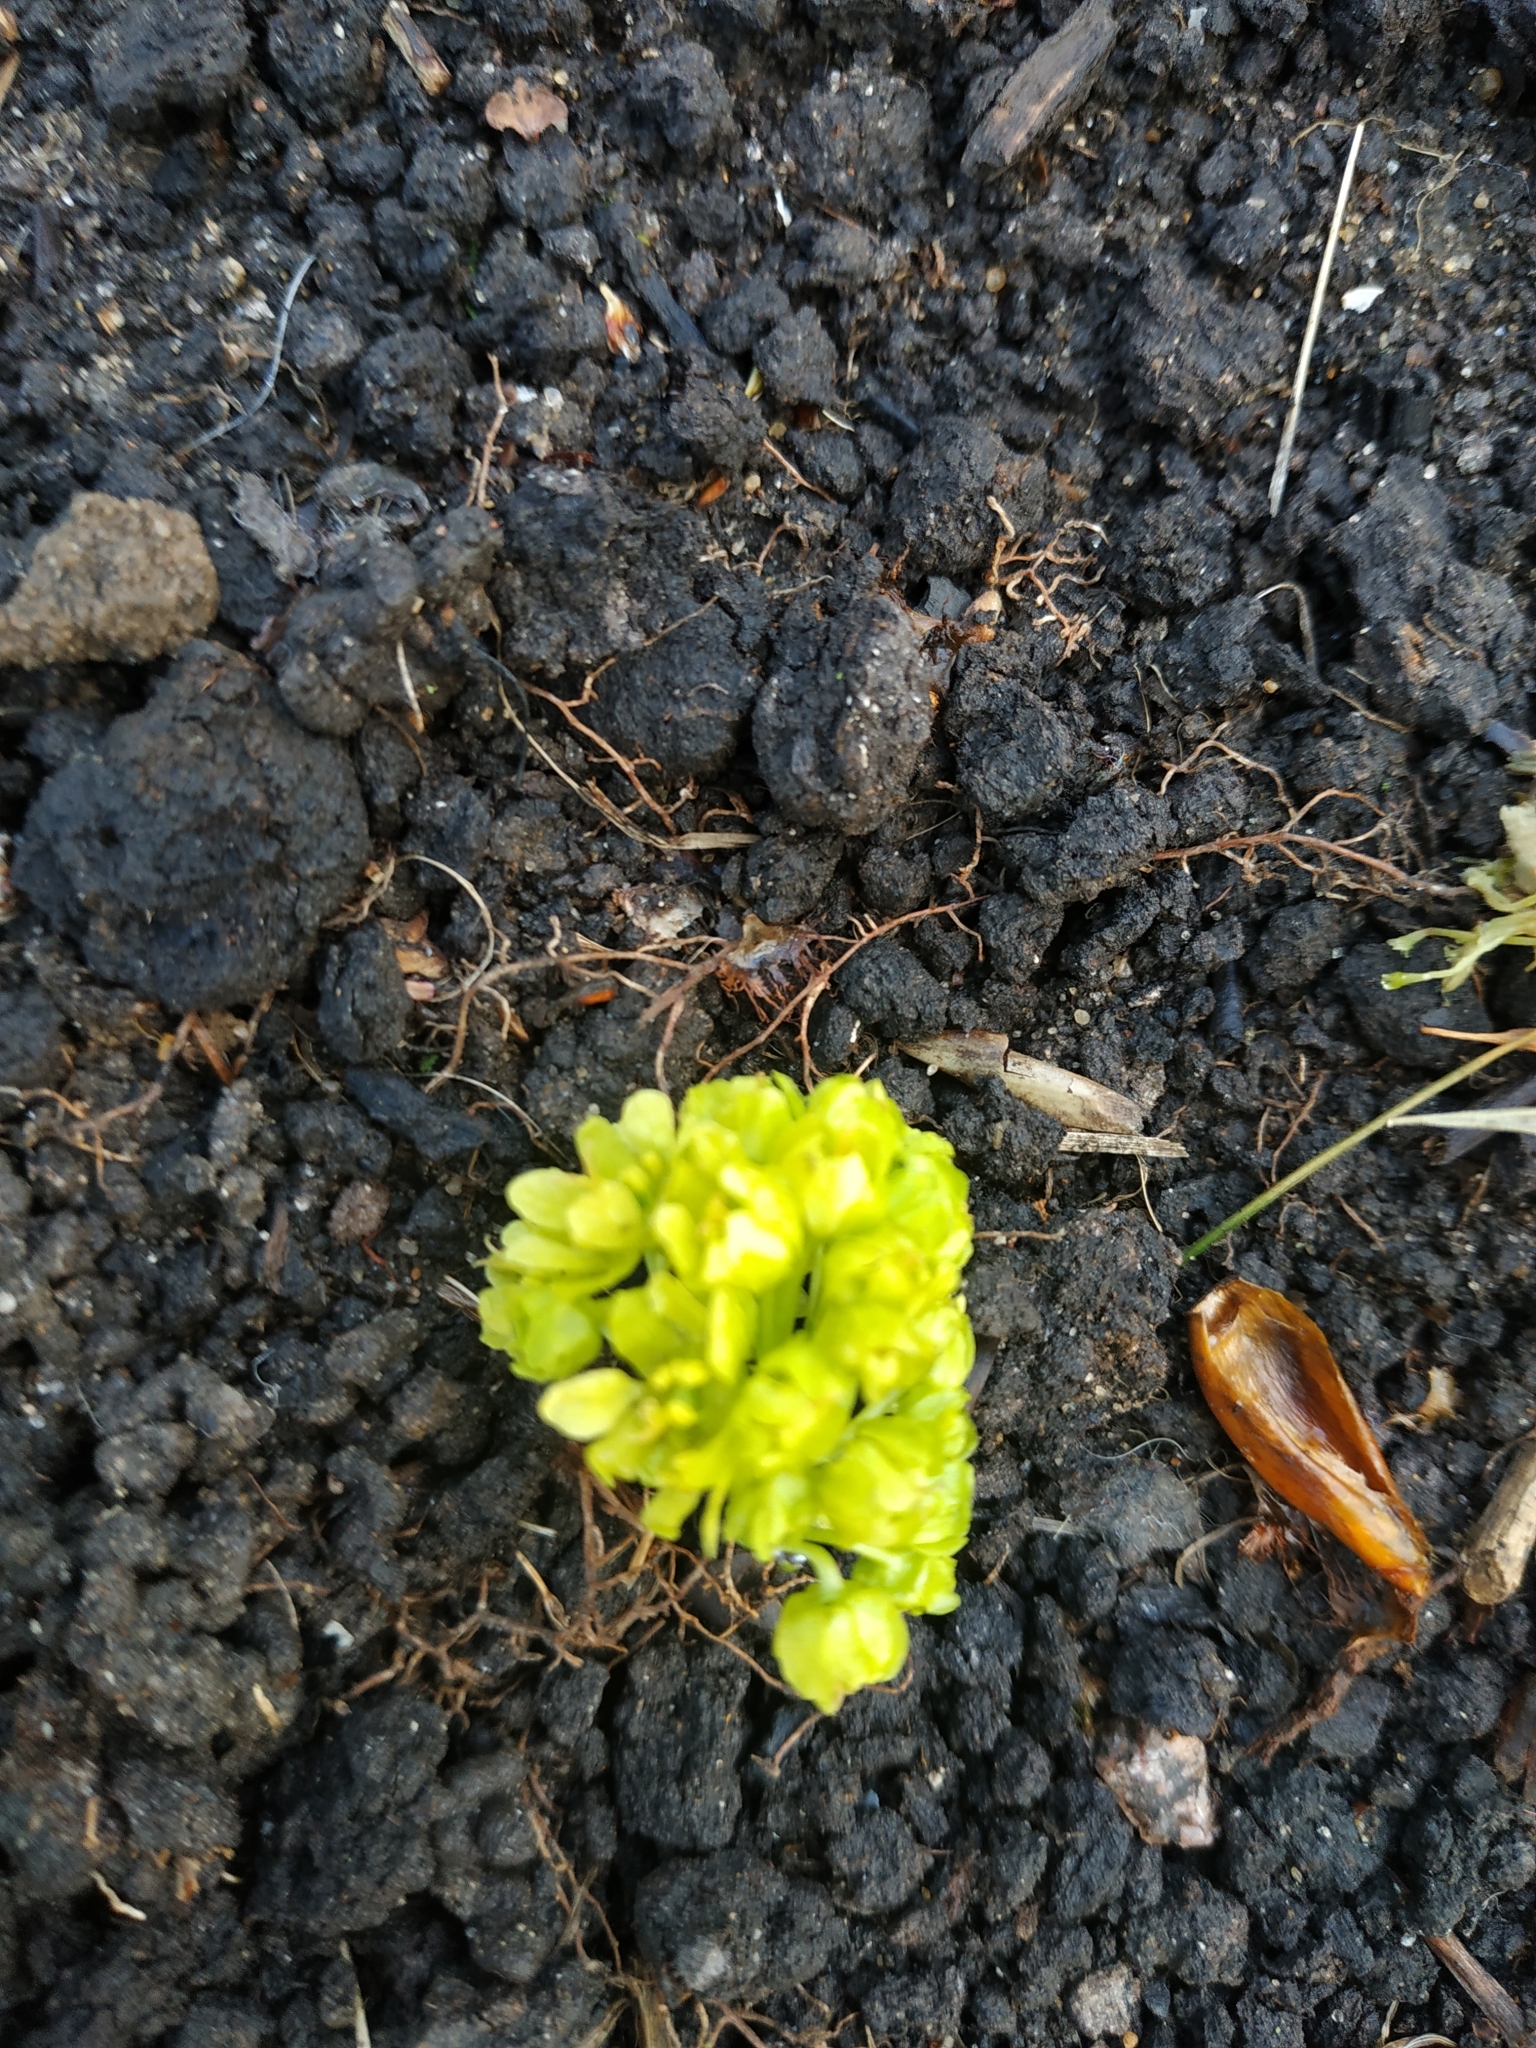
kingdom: Plantae
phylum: Tracheophyta
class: Magnoliopsida
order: Sapindales
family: Sapindaceae
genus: Acer
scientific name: Acer platanoides
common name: Norway maple
